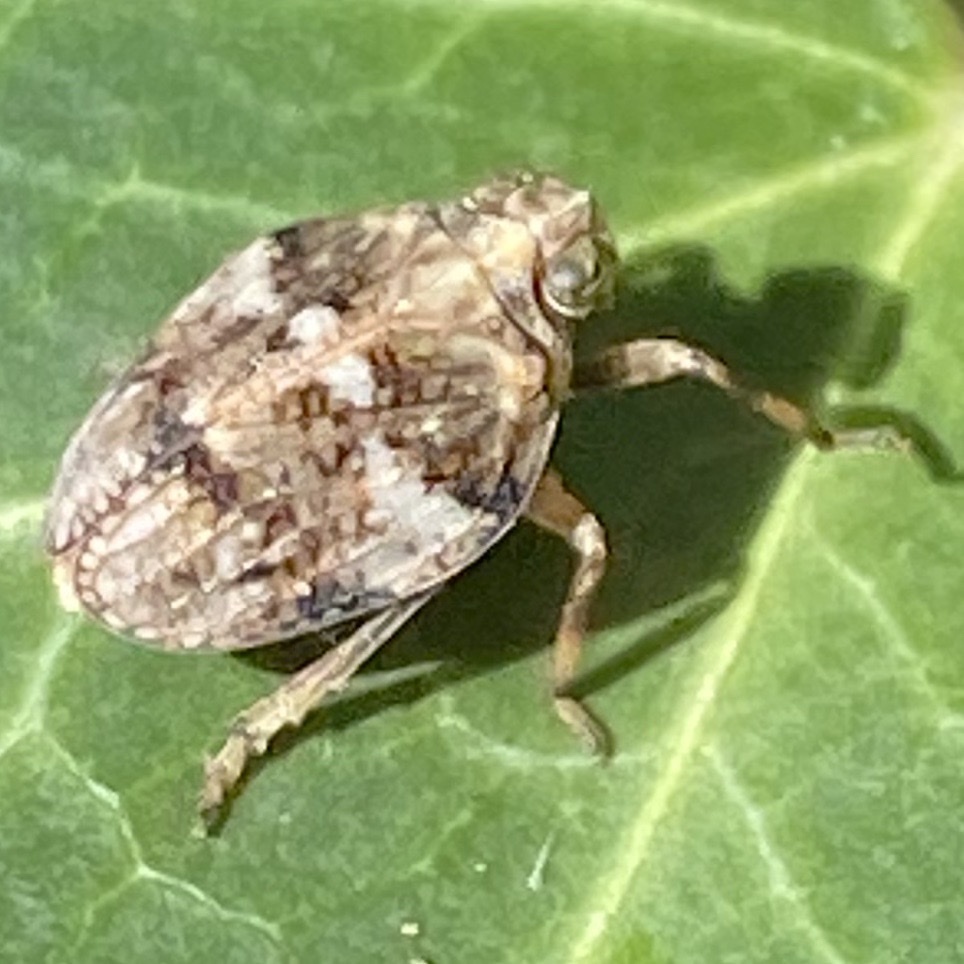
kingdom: Animalia
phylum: Arthropoda
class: Insecta
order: Hemiptera
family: Issidae
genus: Issus
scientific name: Issus muscaeformis
